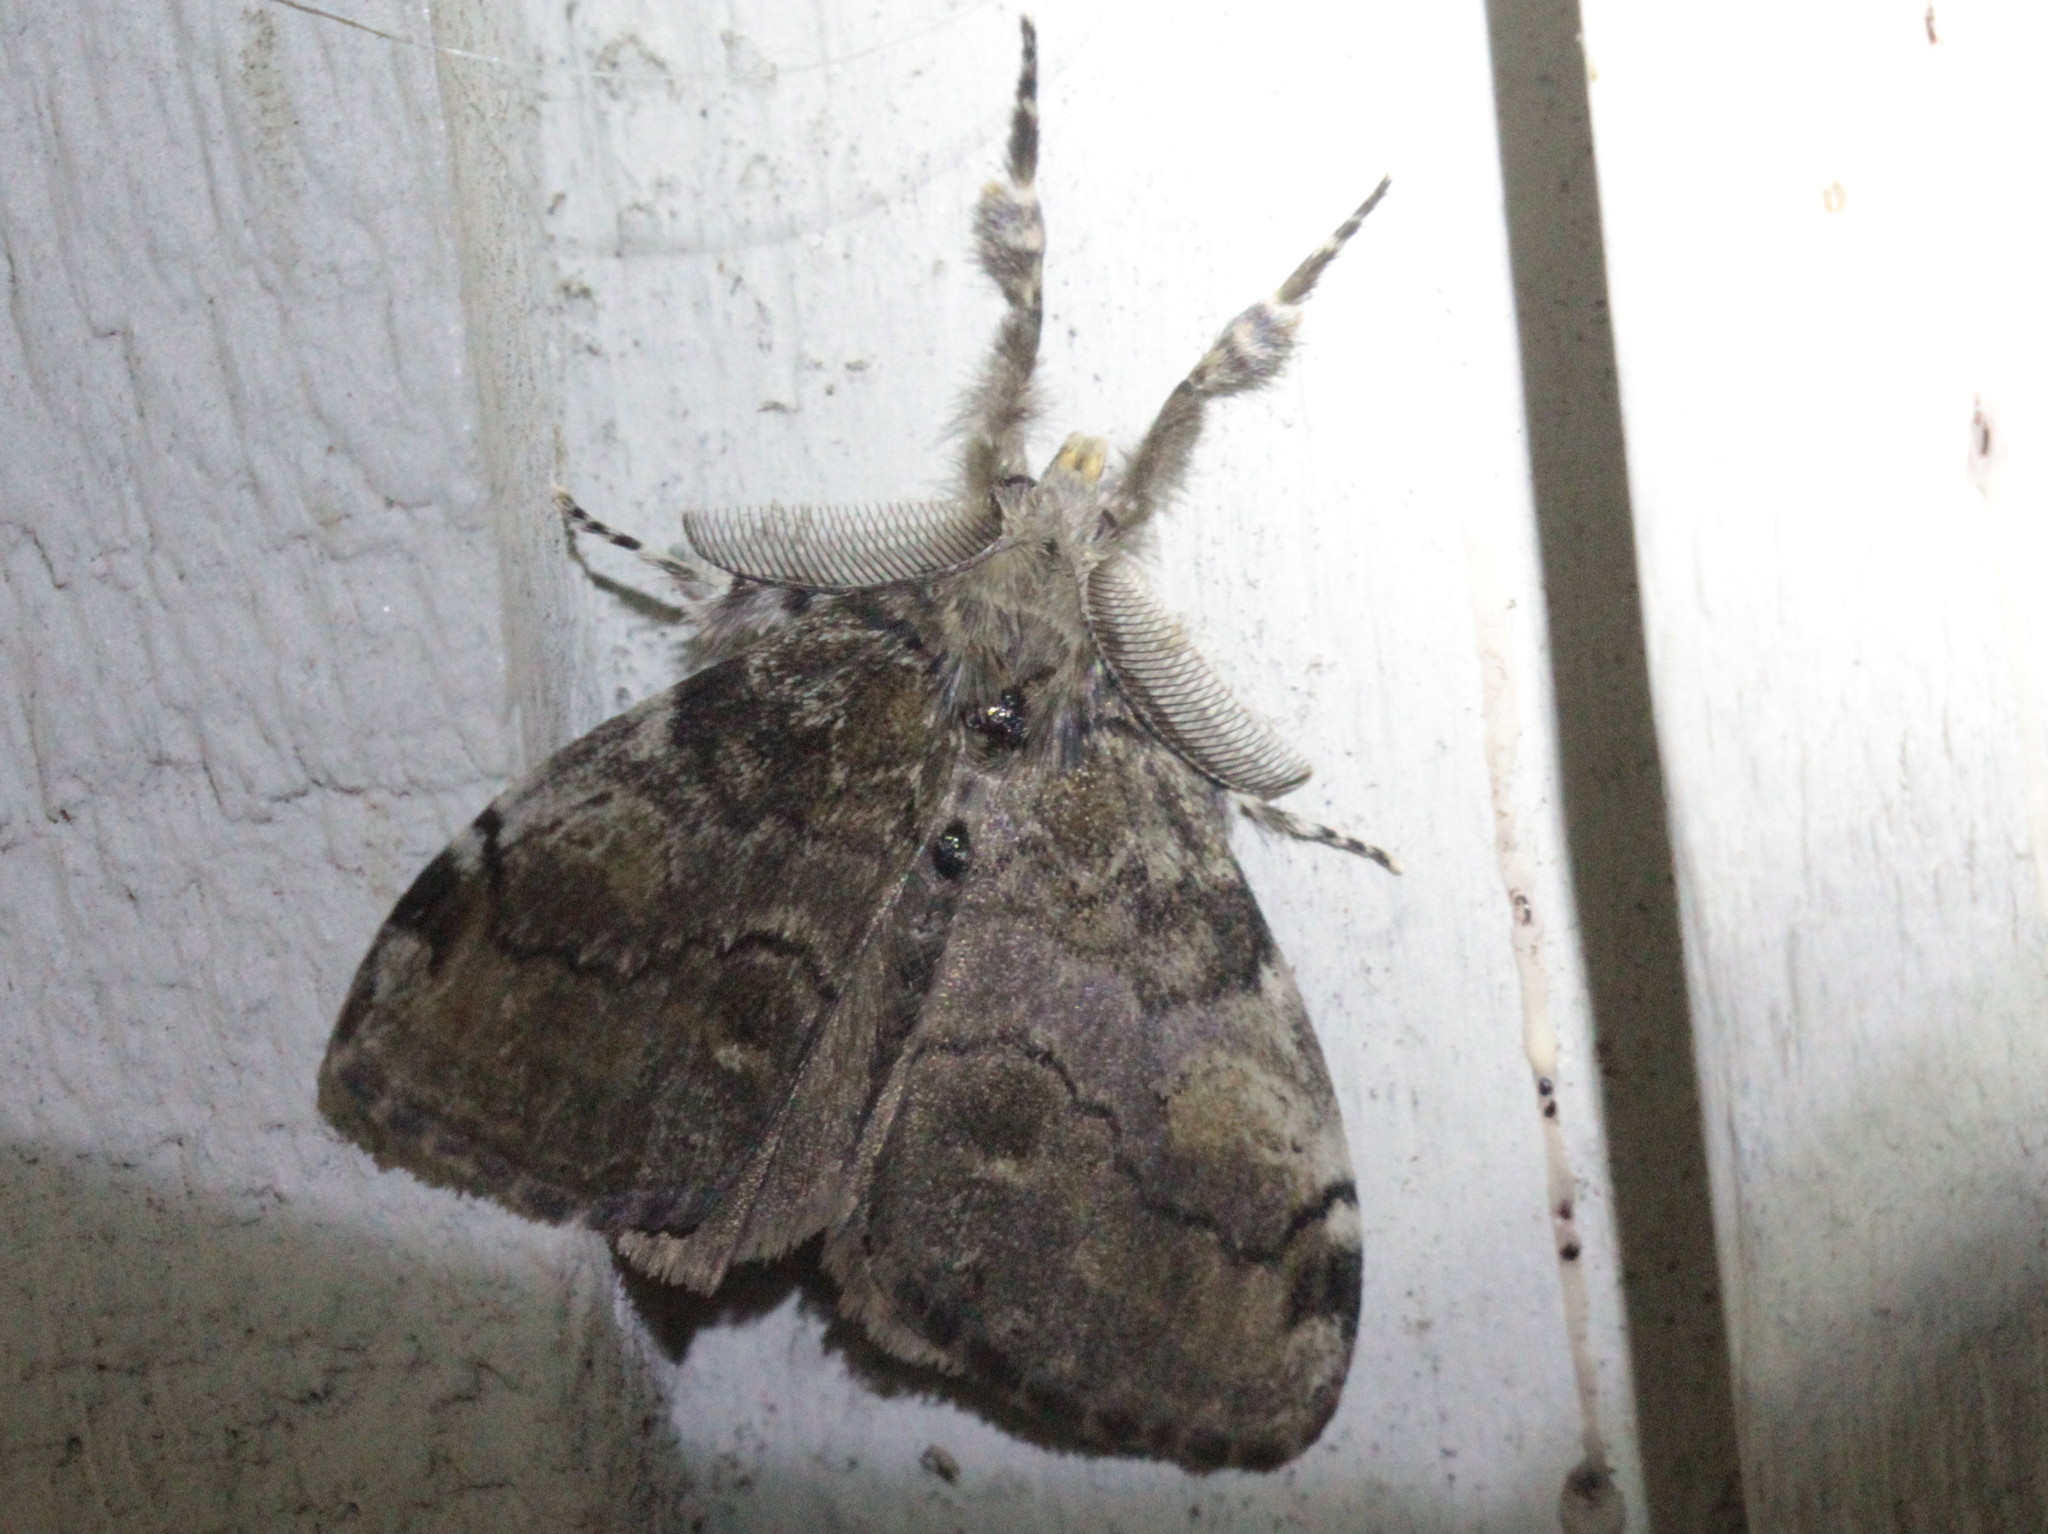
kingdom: Animalia
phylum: Arthropoda
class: Insecta
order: Lepidoptera
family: Erebidae
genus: Orgyia
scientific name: Orgyia leucostigma
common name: White-marked tussock moth
